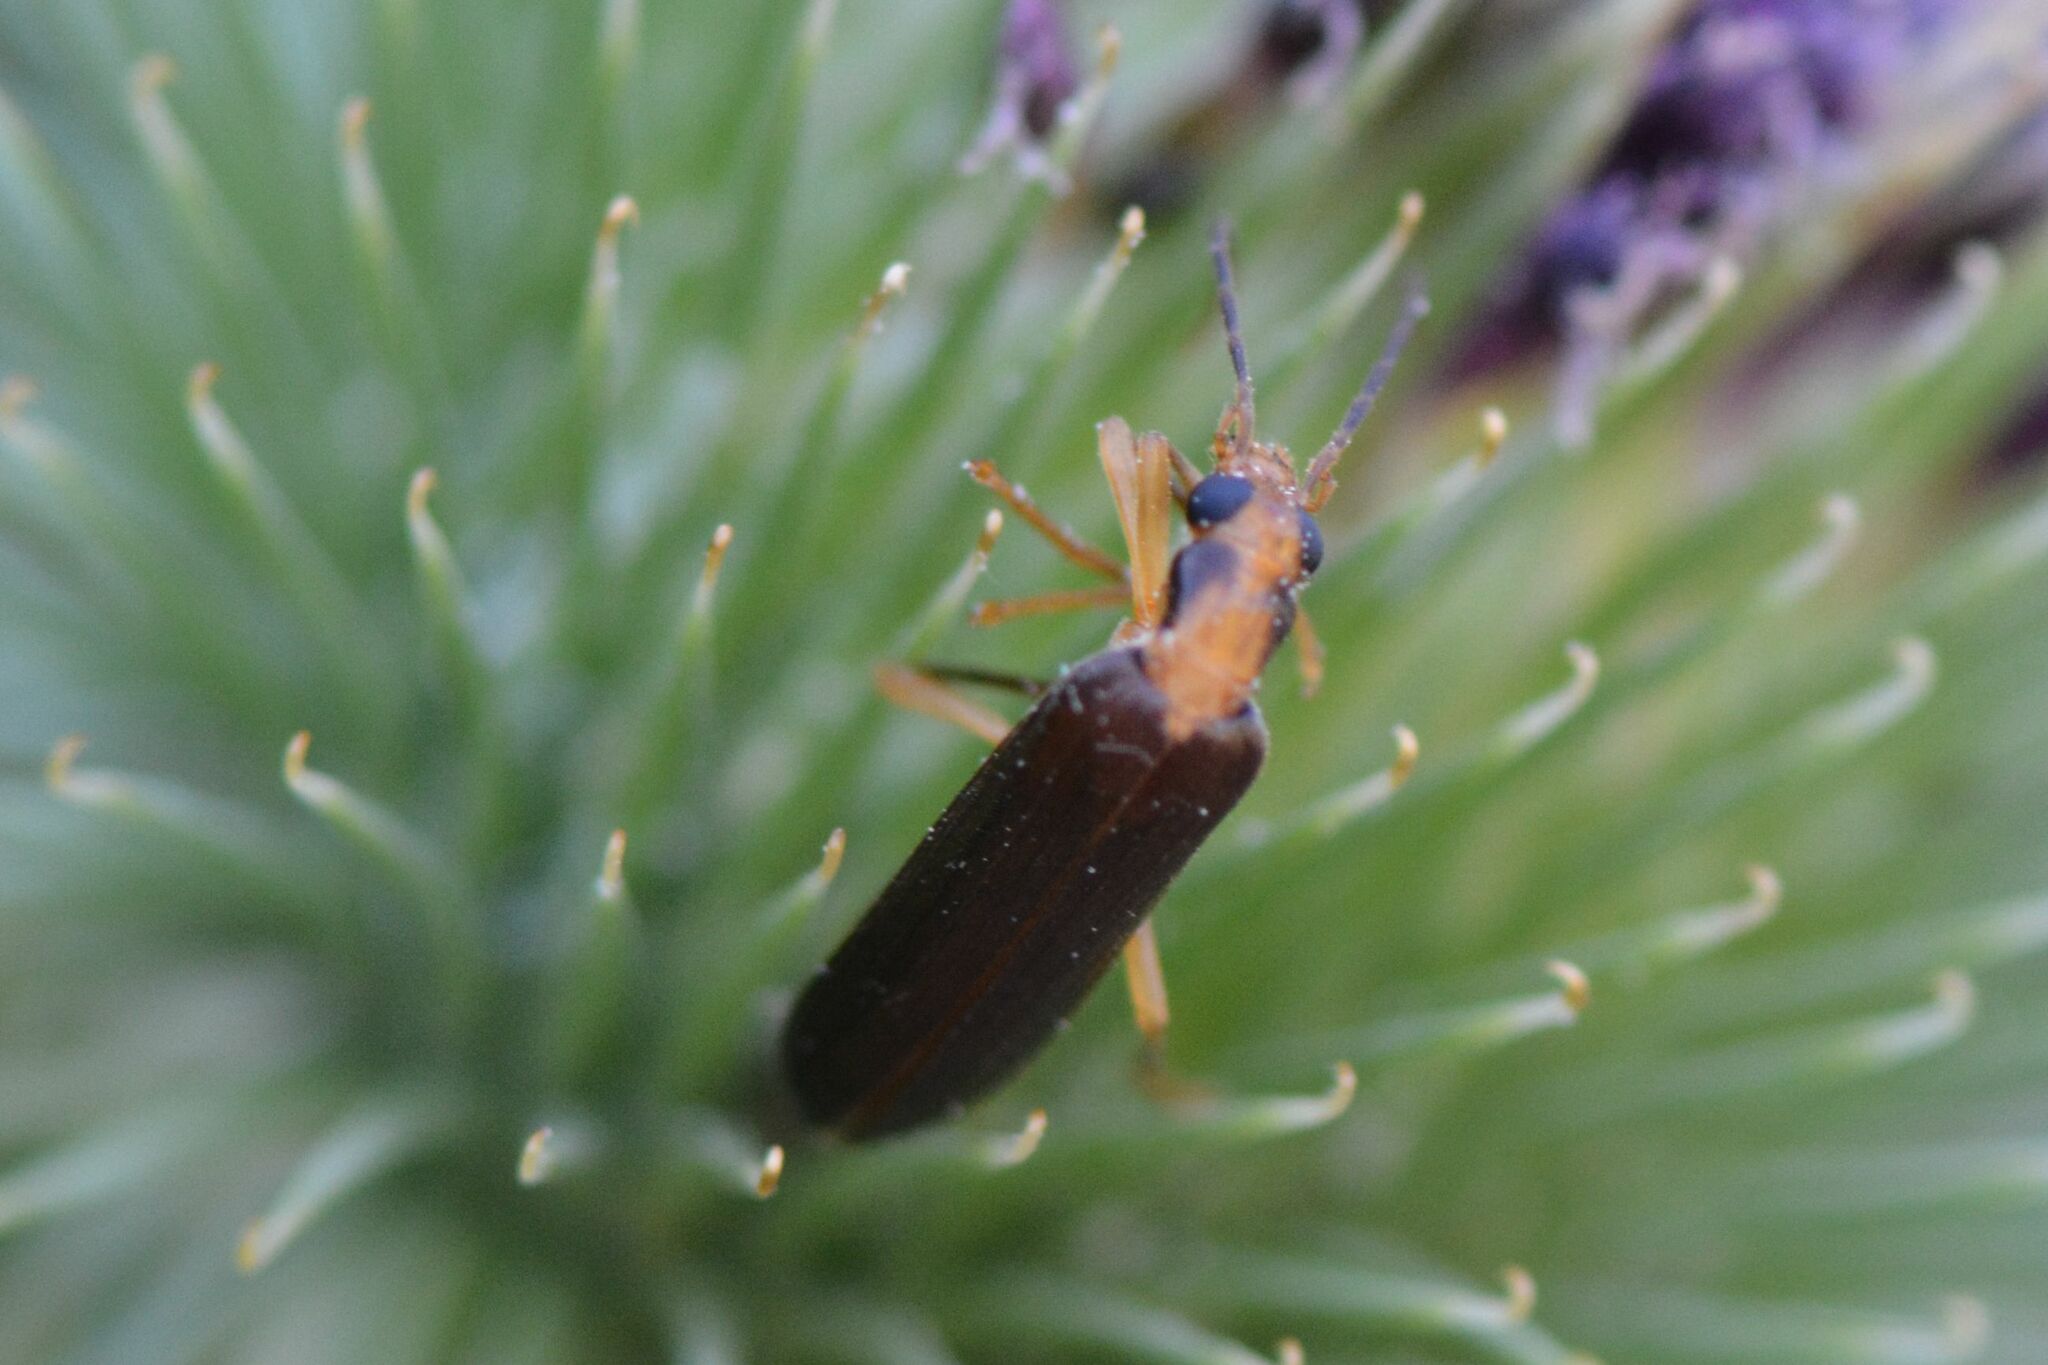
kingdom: Animalia
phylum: Arthropoda
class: Insecta
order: Coleoptera
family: Oedemeridae
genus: Nacerdes
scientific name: Nacerdes carniolica
